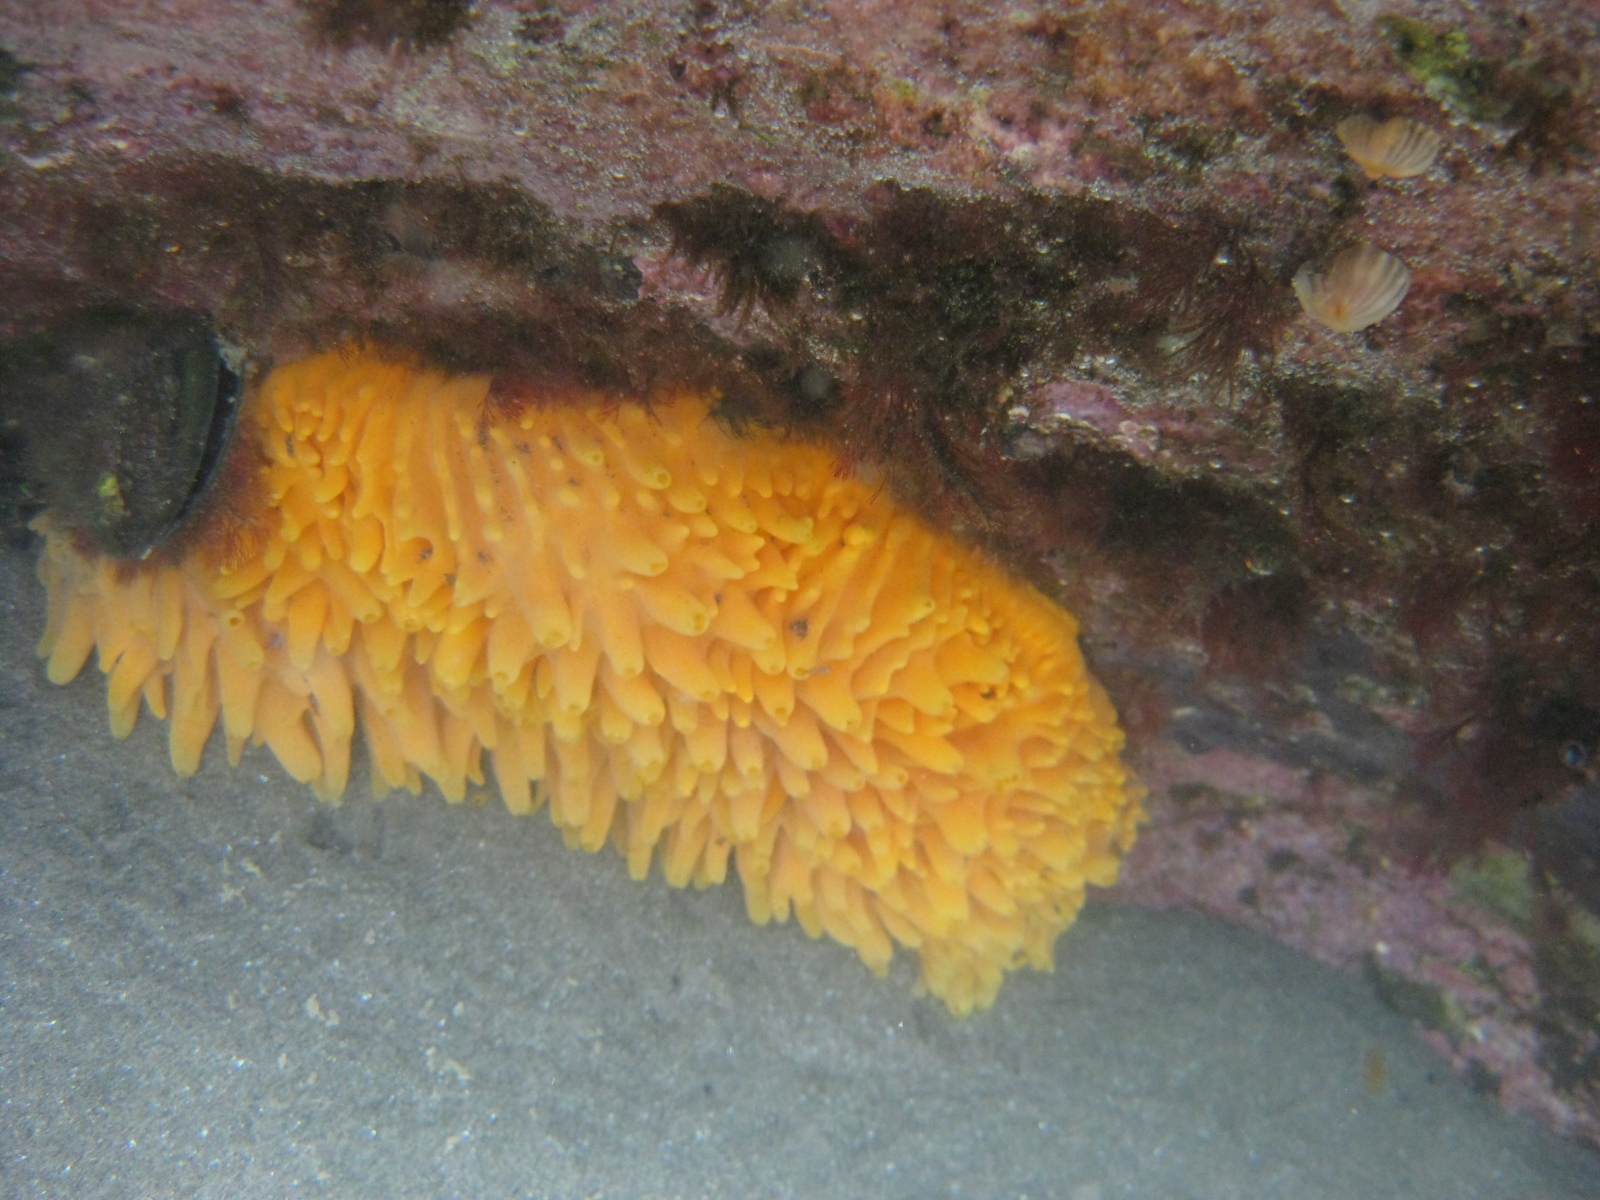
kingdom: Animalia
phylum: Porifera
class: Demospongiae
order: Polymastiida
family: Polymastiidae
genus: Polymastia
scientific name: Polymastia aurantia
